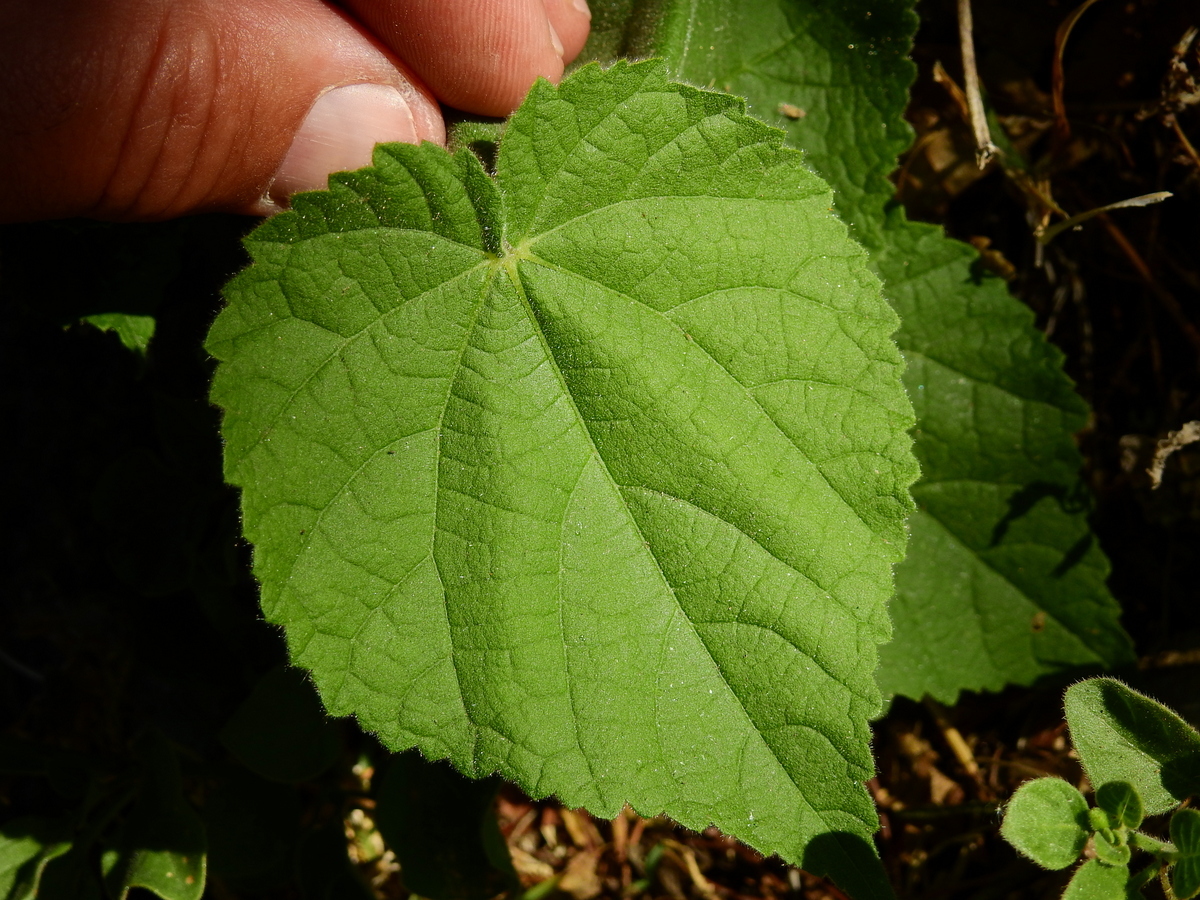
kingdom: Plantae
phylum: Tracheophyta
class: Magnoliopsida
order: Malvales
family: Malvaceae
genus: Abutilon
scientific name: Abutilon grandifolium
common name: Hairy abutilon
